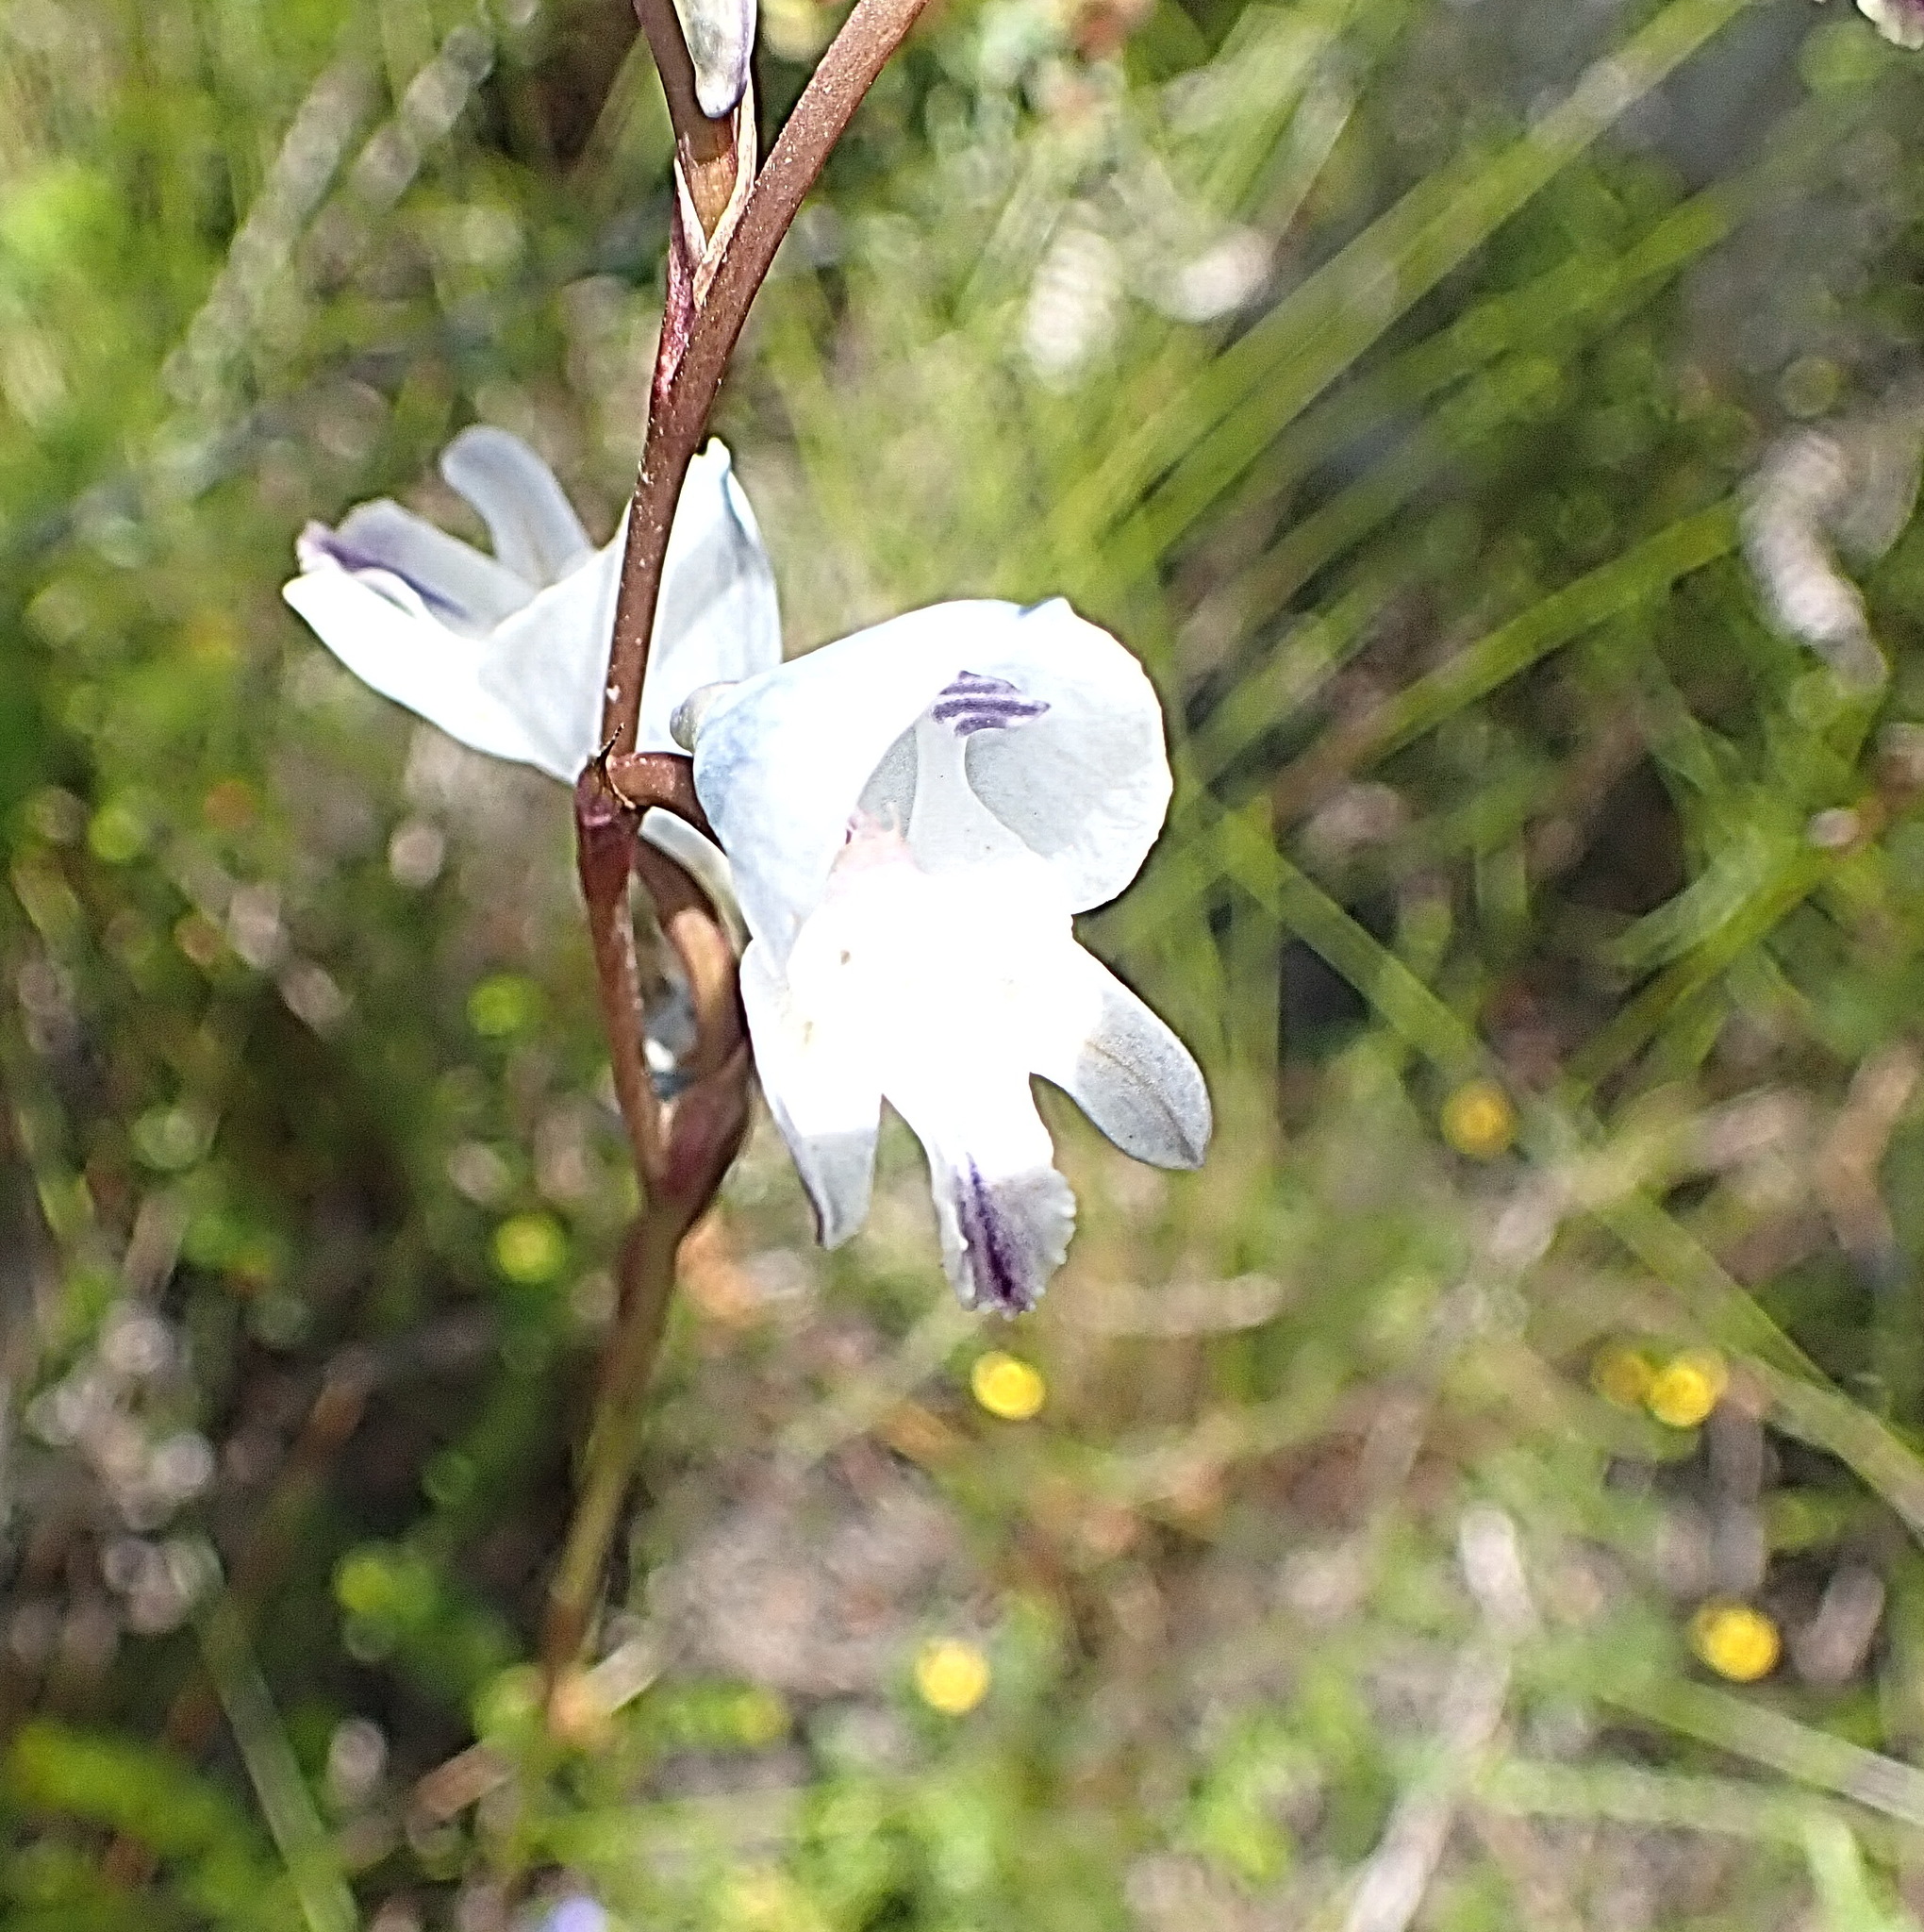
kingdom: Plantae
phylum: Tracheophyta
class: Liliopsida
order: Asparagales
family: Orchidaceae
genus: Disa
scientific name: Disa hians
